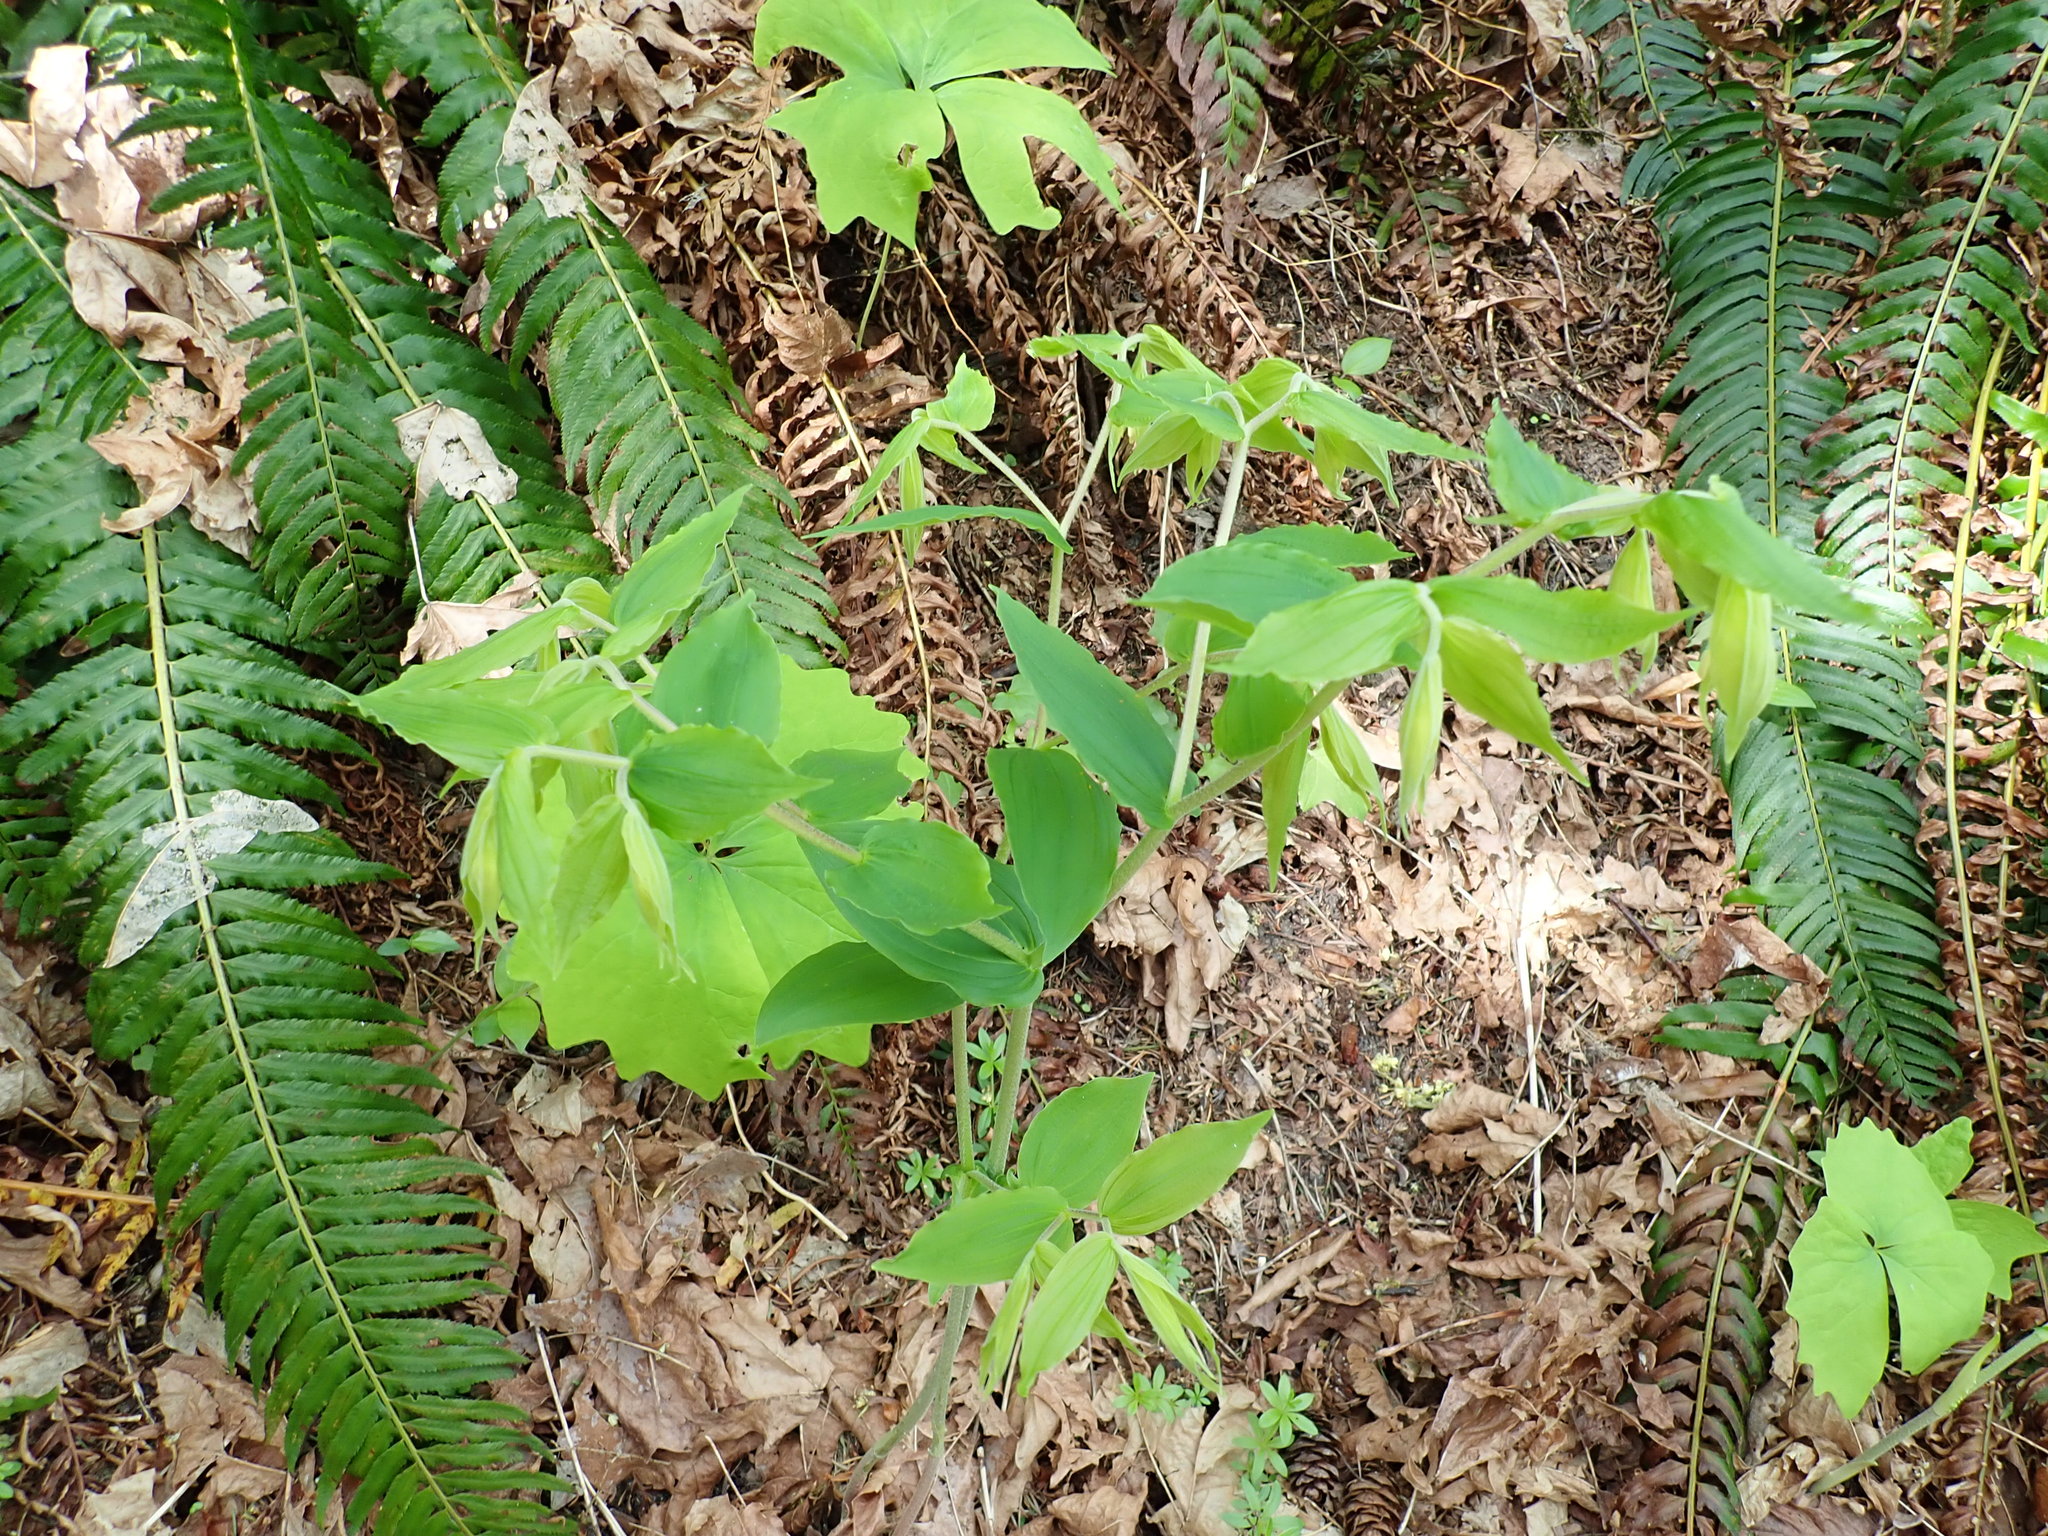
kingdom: Plantae
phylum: Tracheophyta
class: Liliopsida
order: Liliales
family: Liliaceae
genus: Prosartes
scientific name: Prosartes hookeri
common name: Fairy-bells
